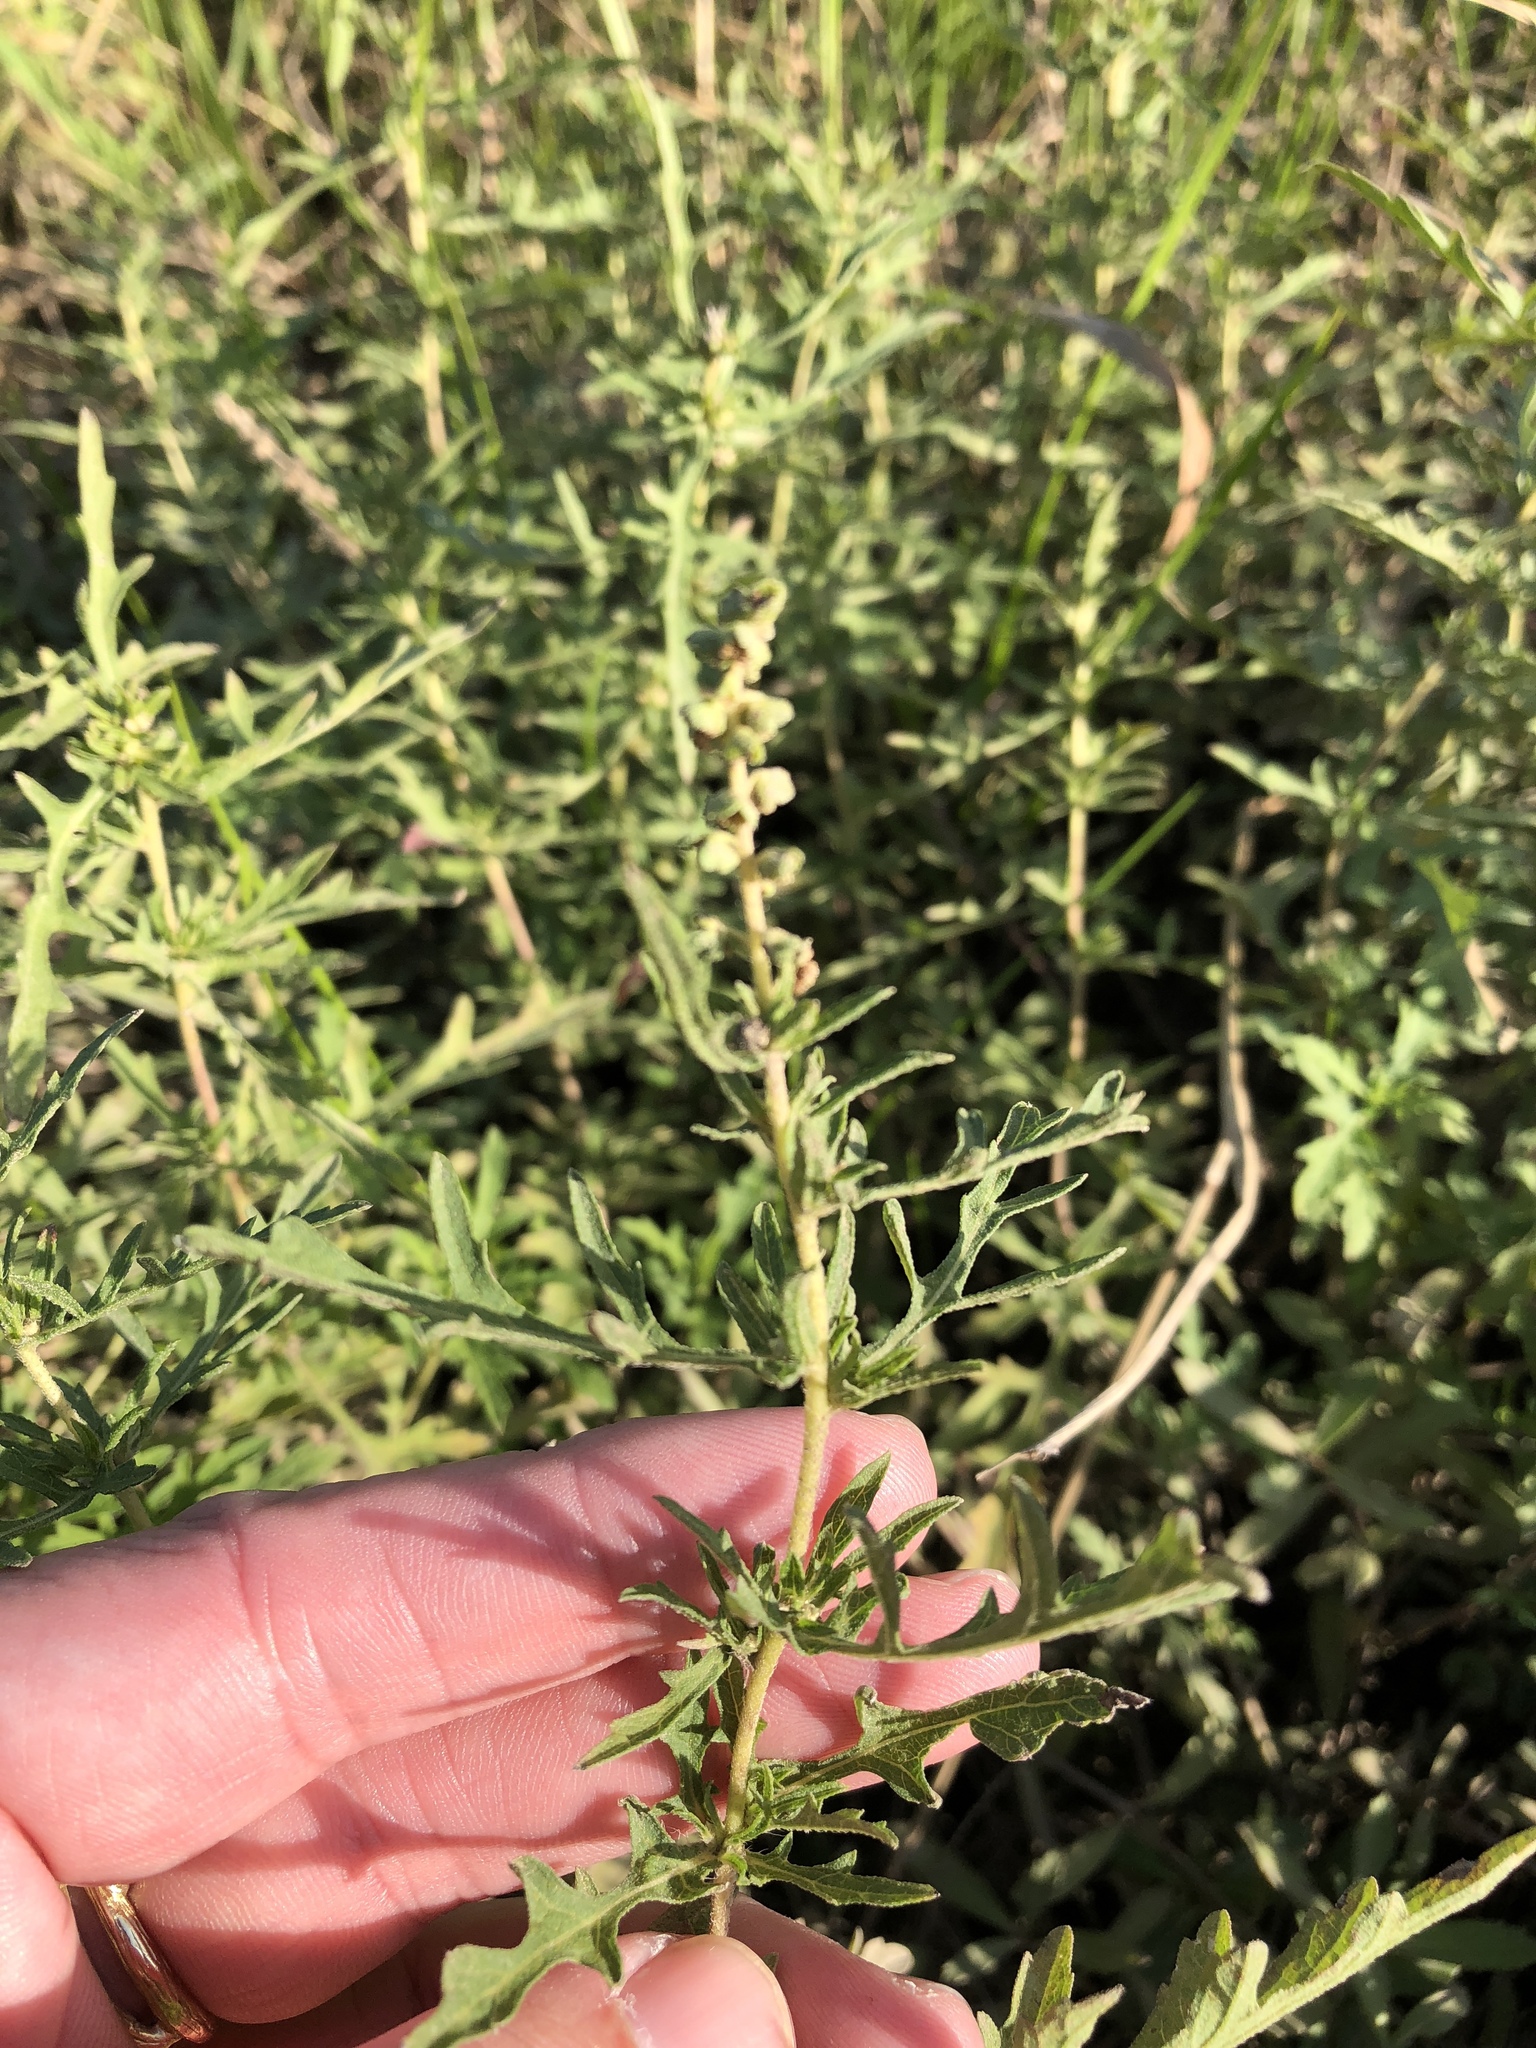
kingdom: Plantae
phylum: Tracheophyta
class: Magnoliopsida
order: Asterales
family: Asteraceae
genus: Ambrosia
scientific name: Ambrosia psilostachya
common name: Perennial ragweed
